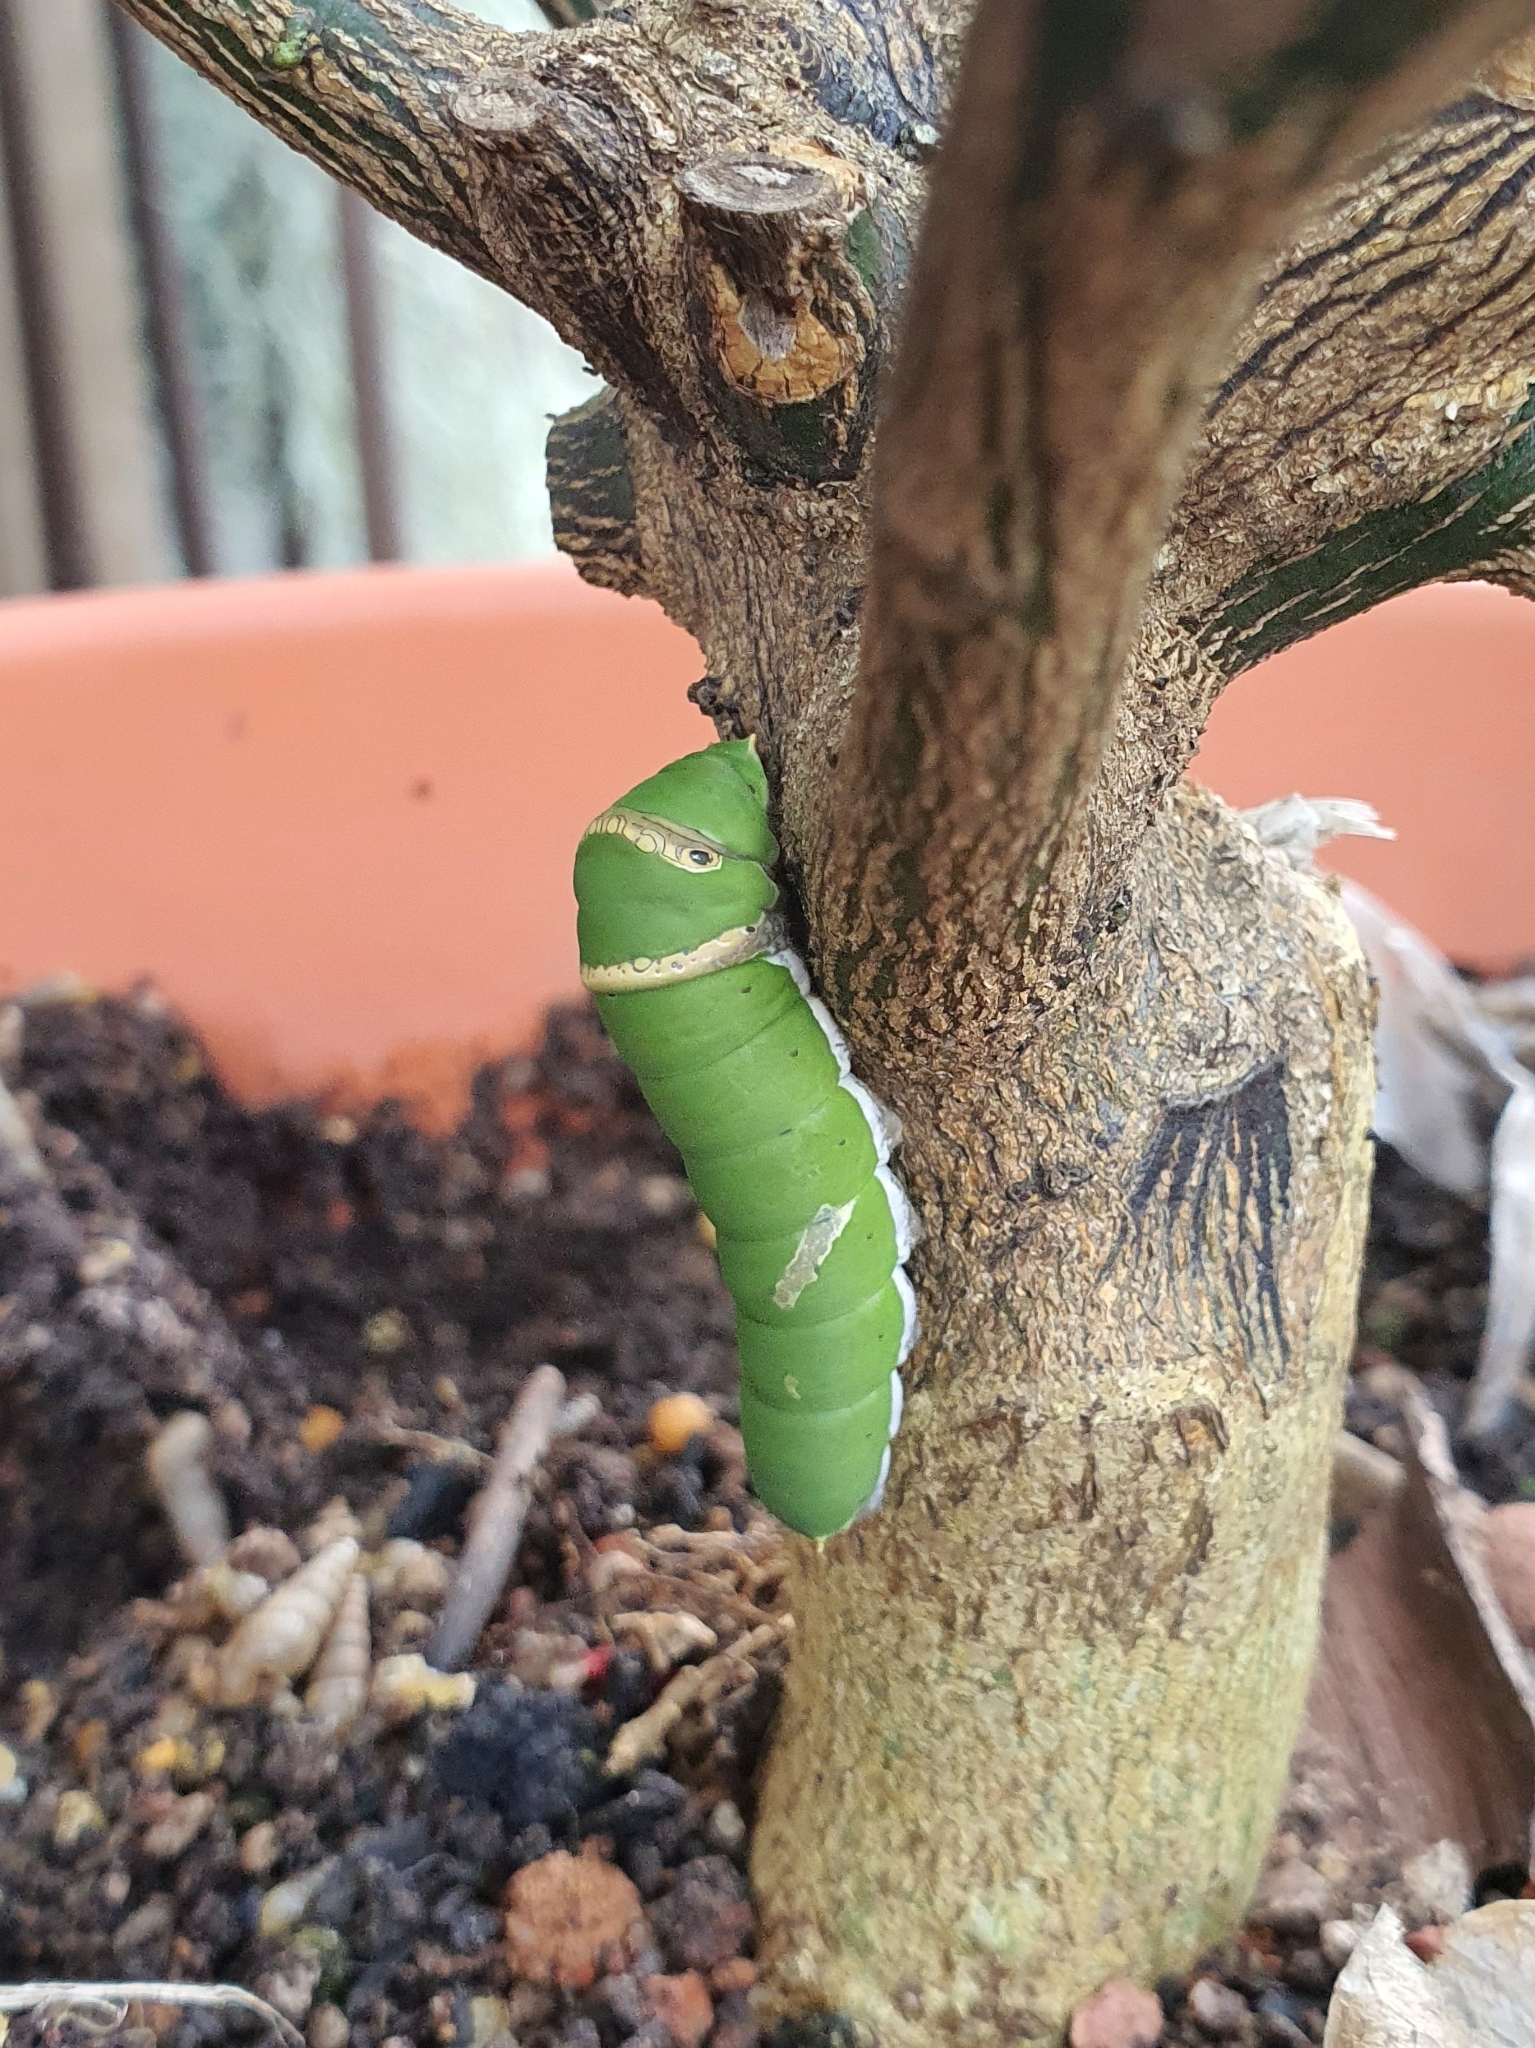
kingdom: Animalia
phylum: Arthropoda
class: Insecta
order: Lepidoptera
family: Papilionidae
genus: Papilio
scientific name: Papilio demoleus
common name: Lime butterfly
